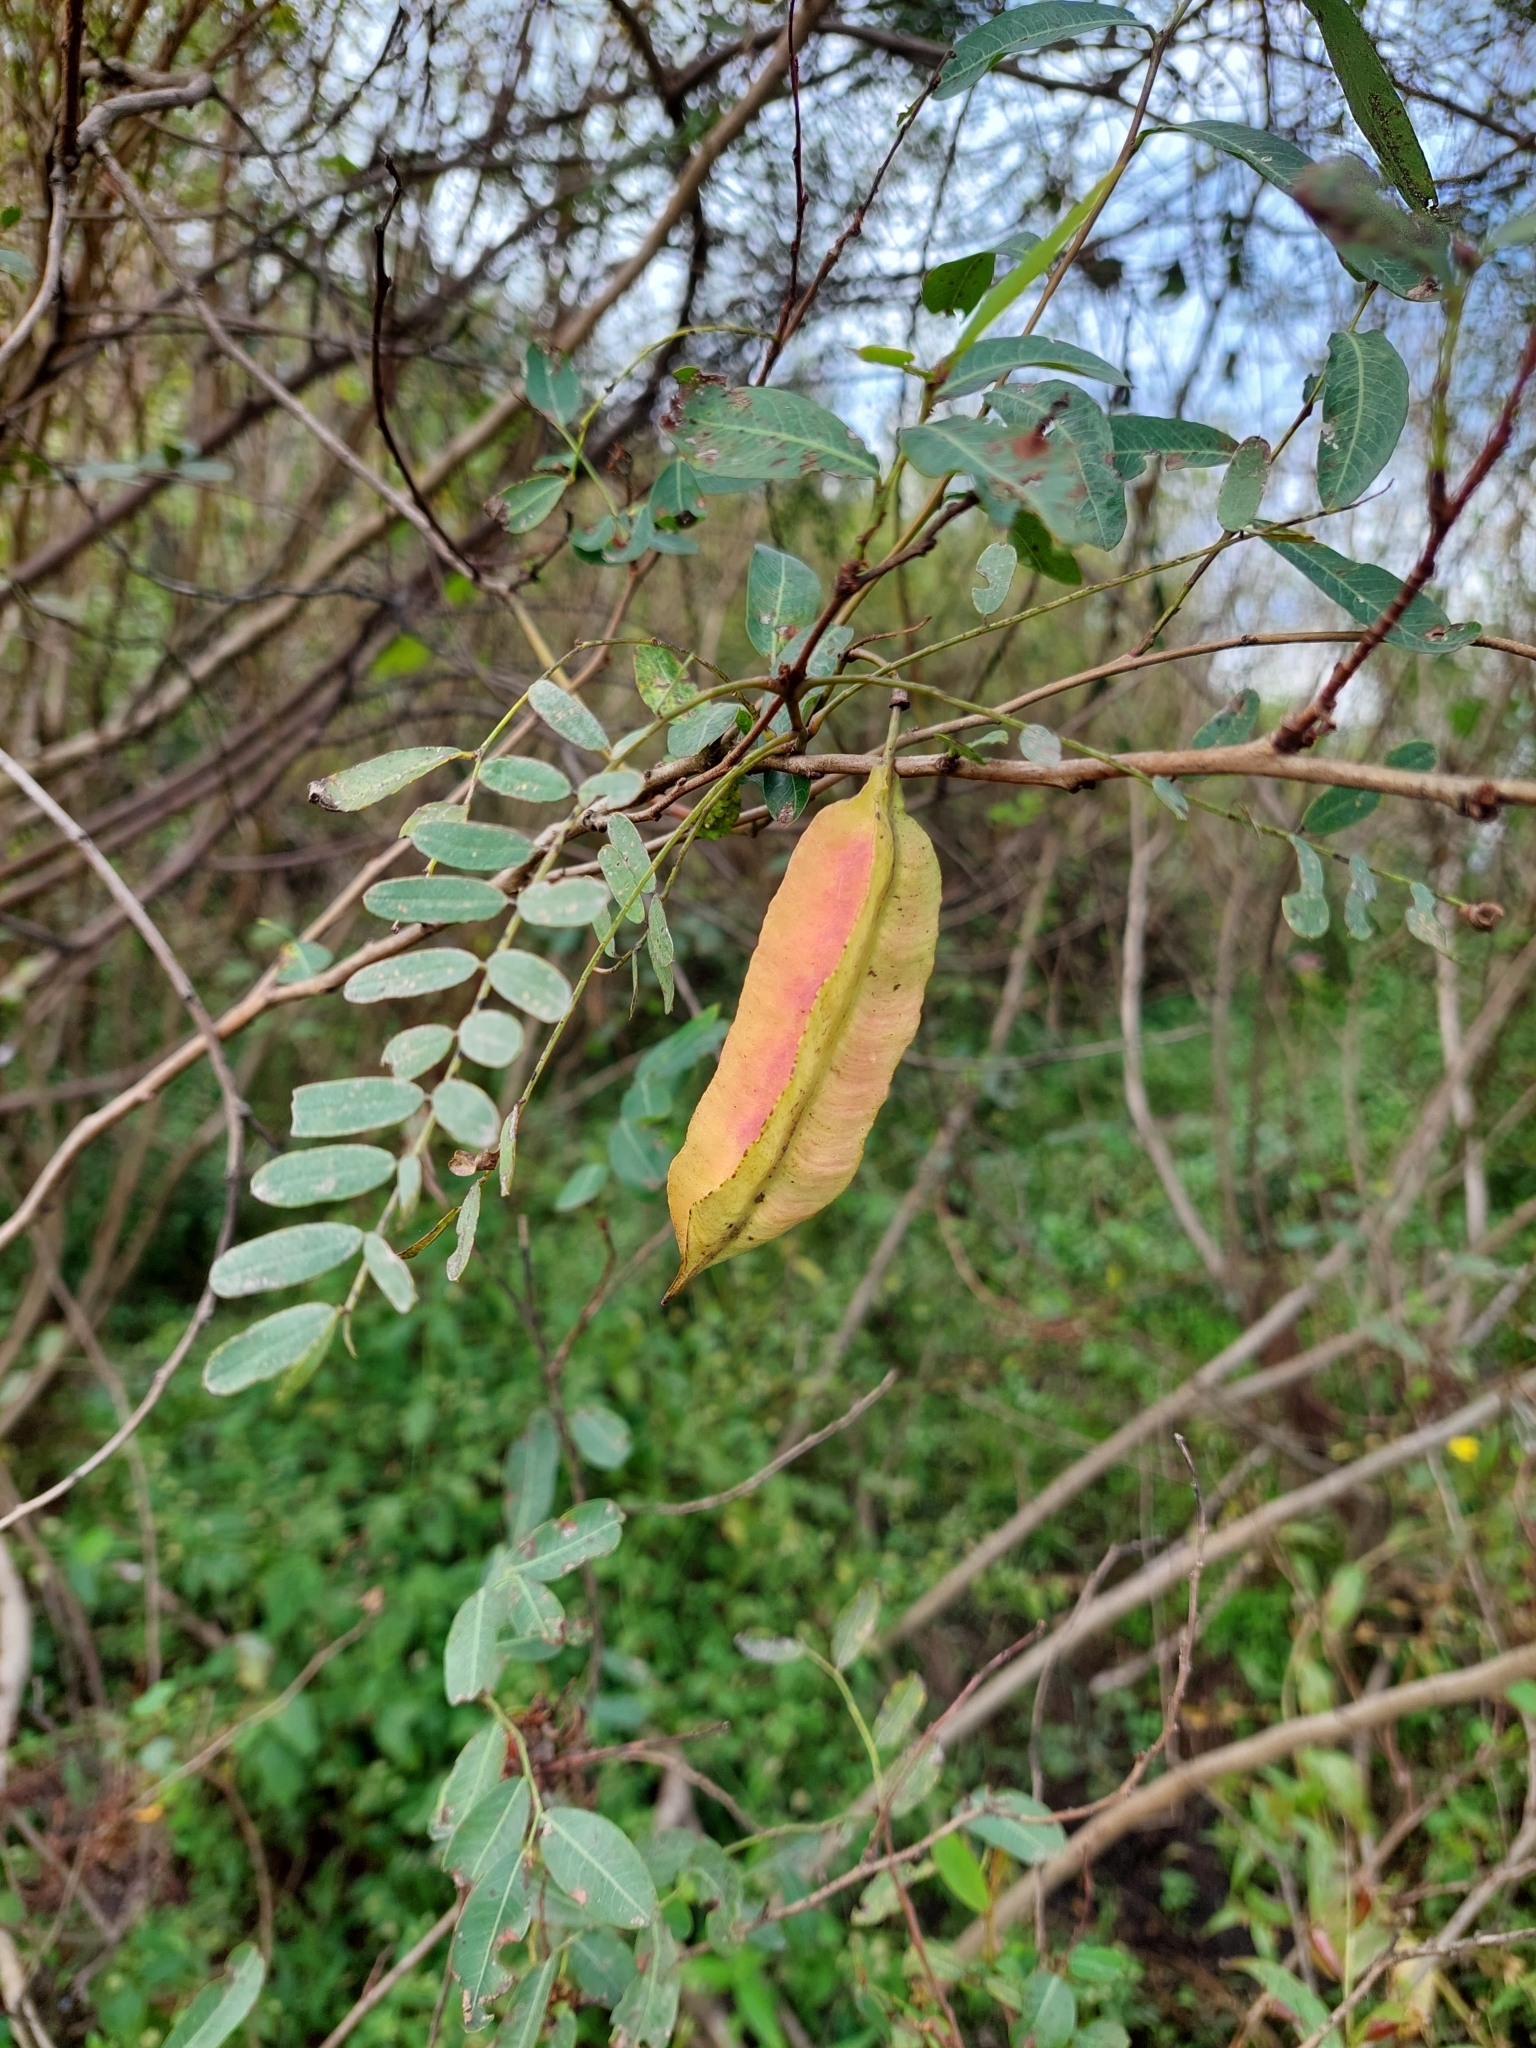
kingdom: Plantae
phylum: Tracheophyta
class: Magnoliopsida
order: Fabales
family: Fabaceae
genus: Sesbania
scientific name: Sesbania punicea
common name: Rattlebox
